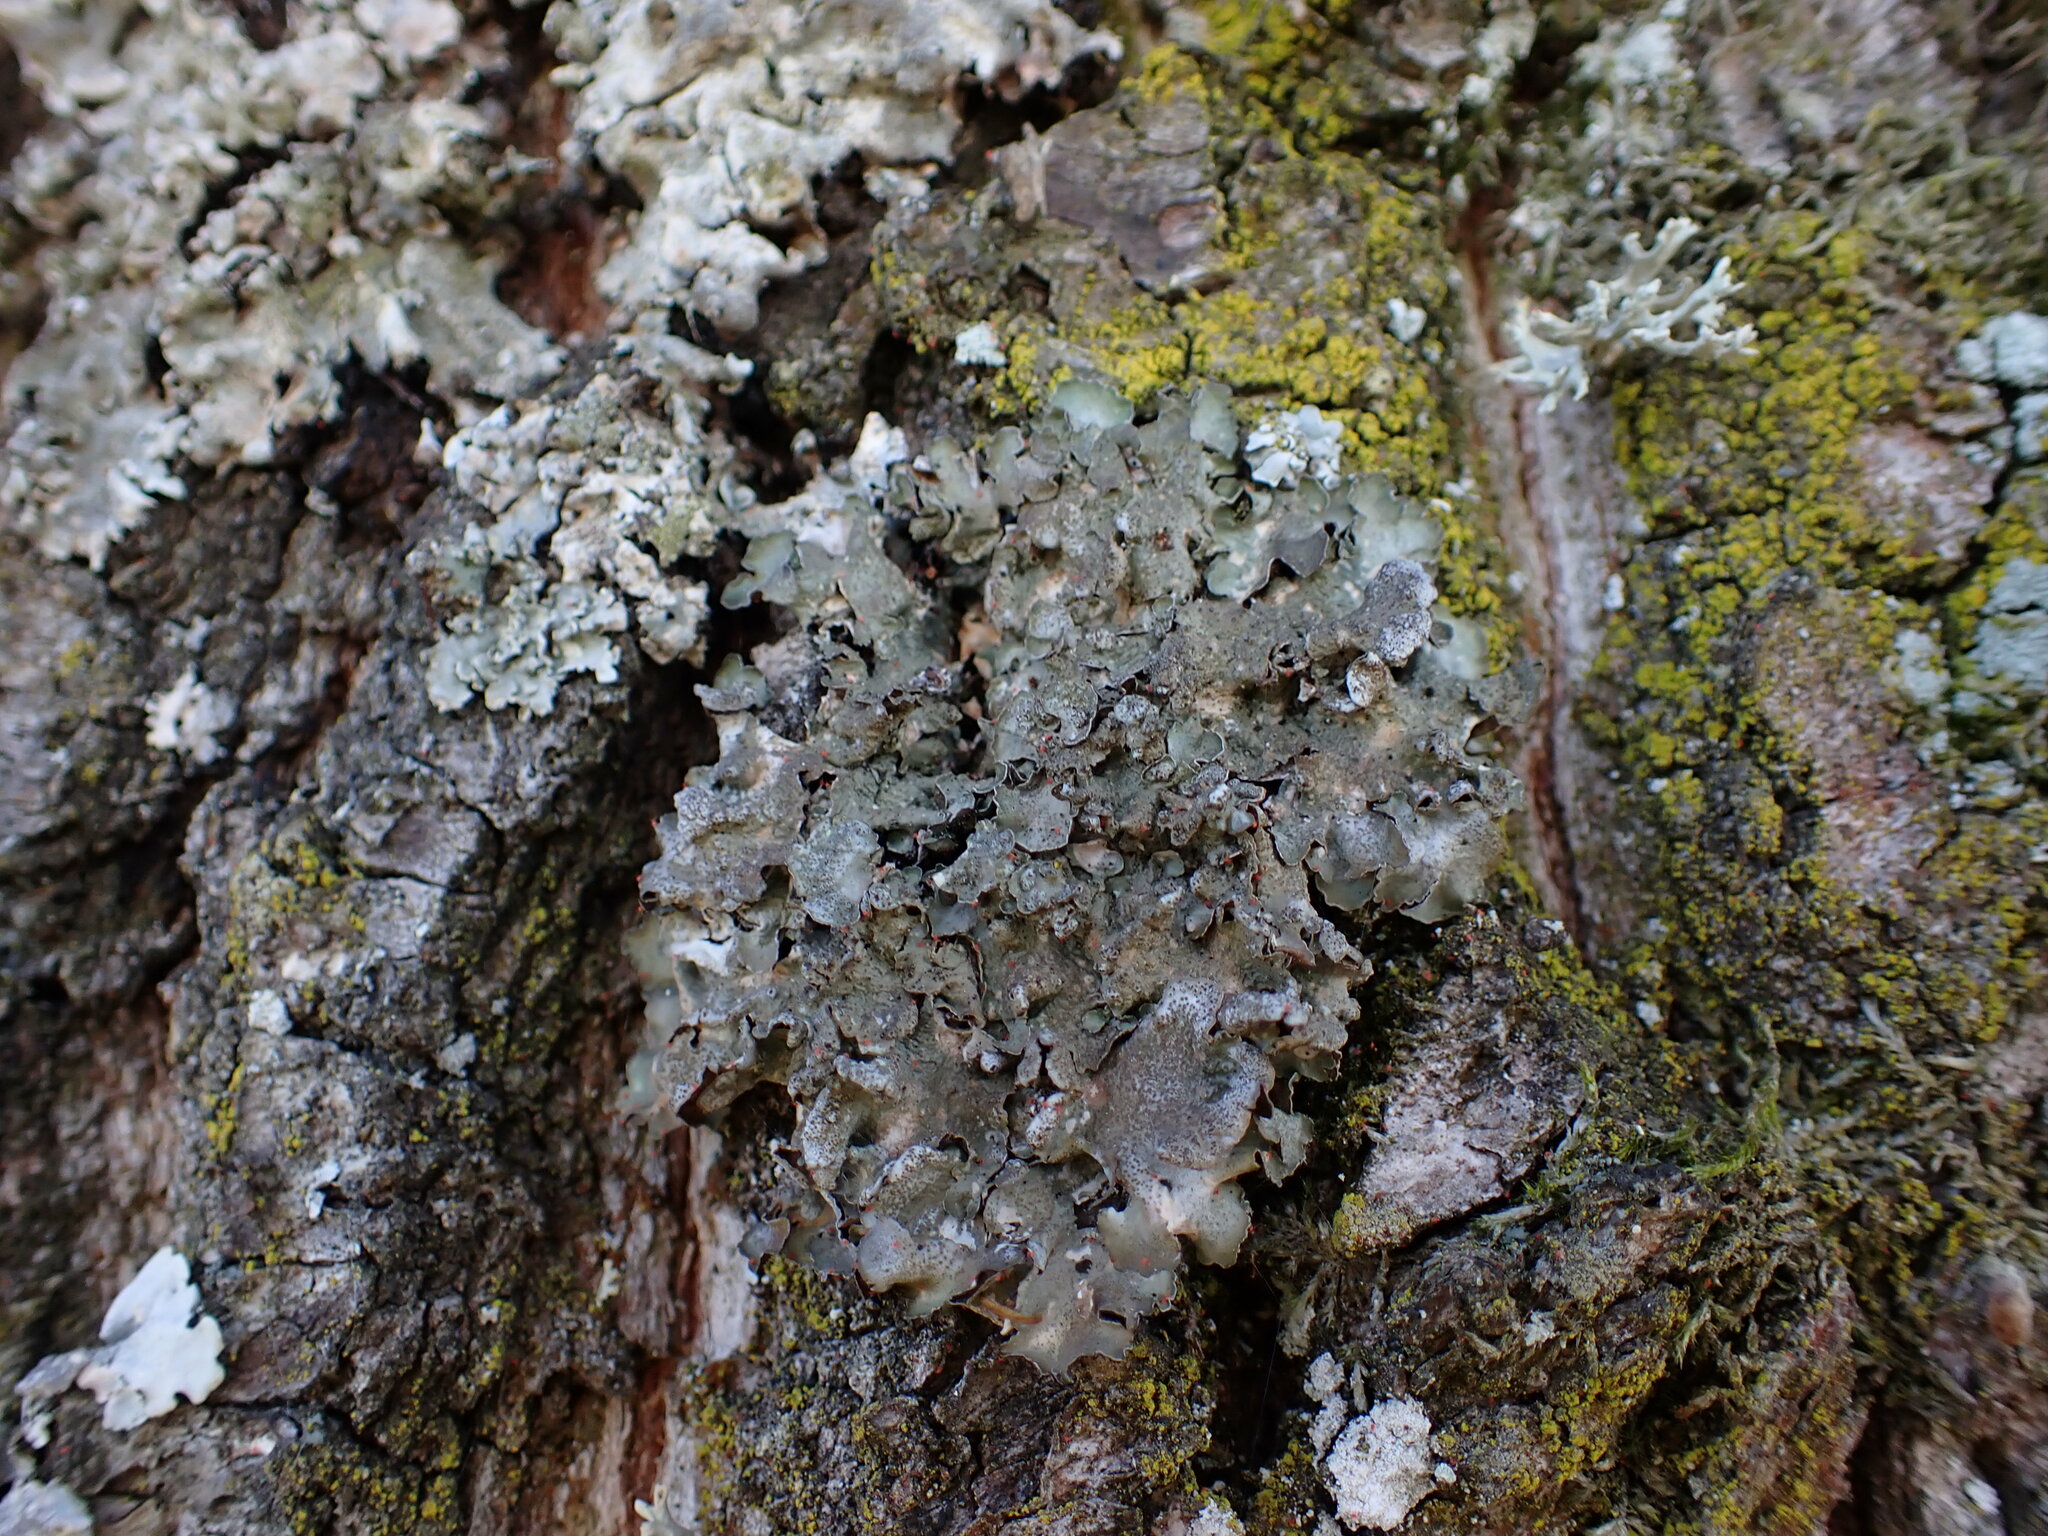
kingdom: Fungi
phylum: Ascomycota
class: Lecanoromycetes
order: Lecanorales
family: Parmeliaceae
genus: Pleurosticta
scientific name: Pleurosticta acetabulum
